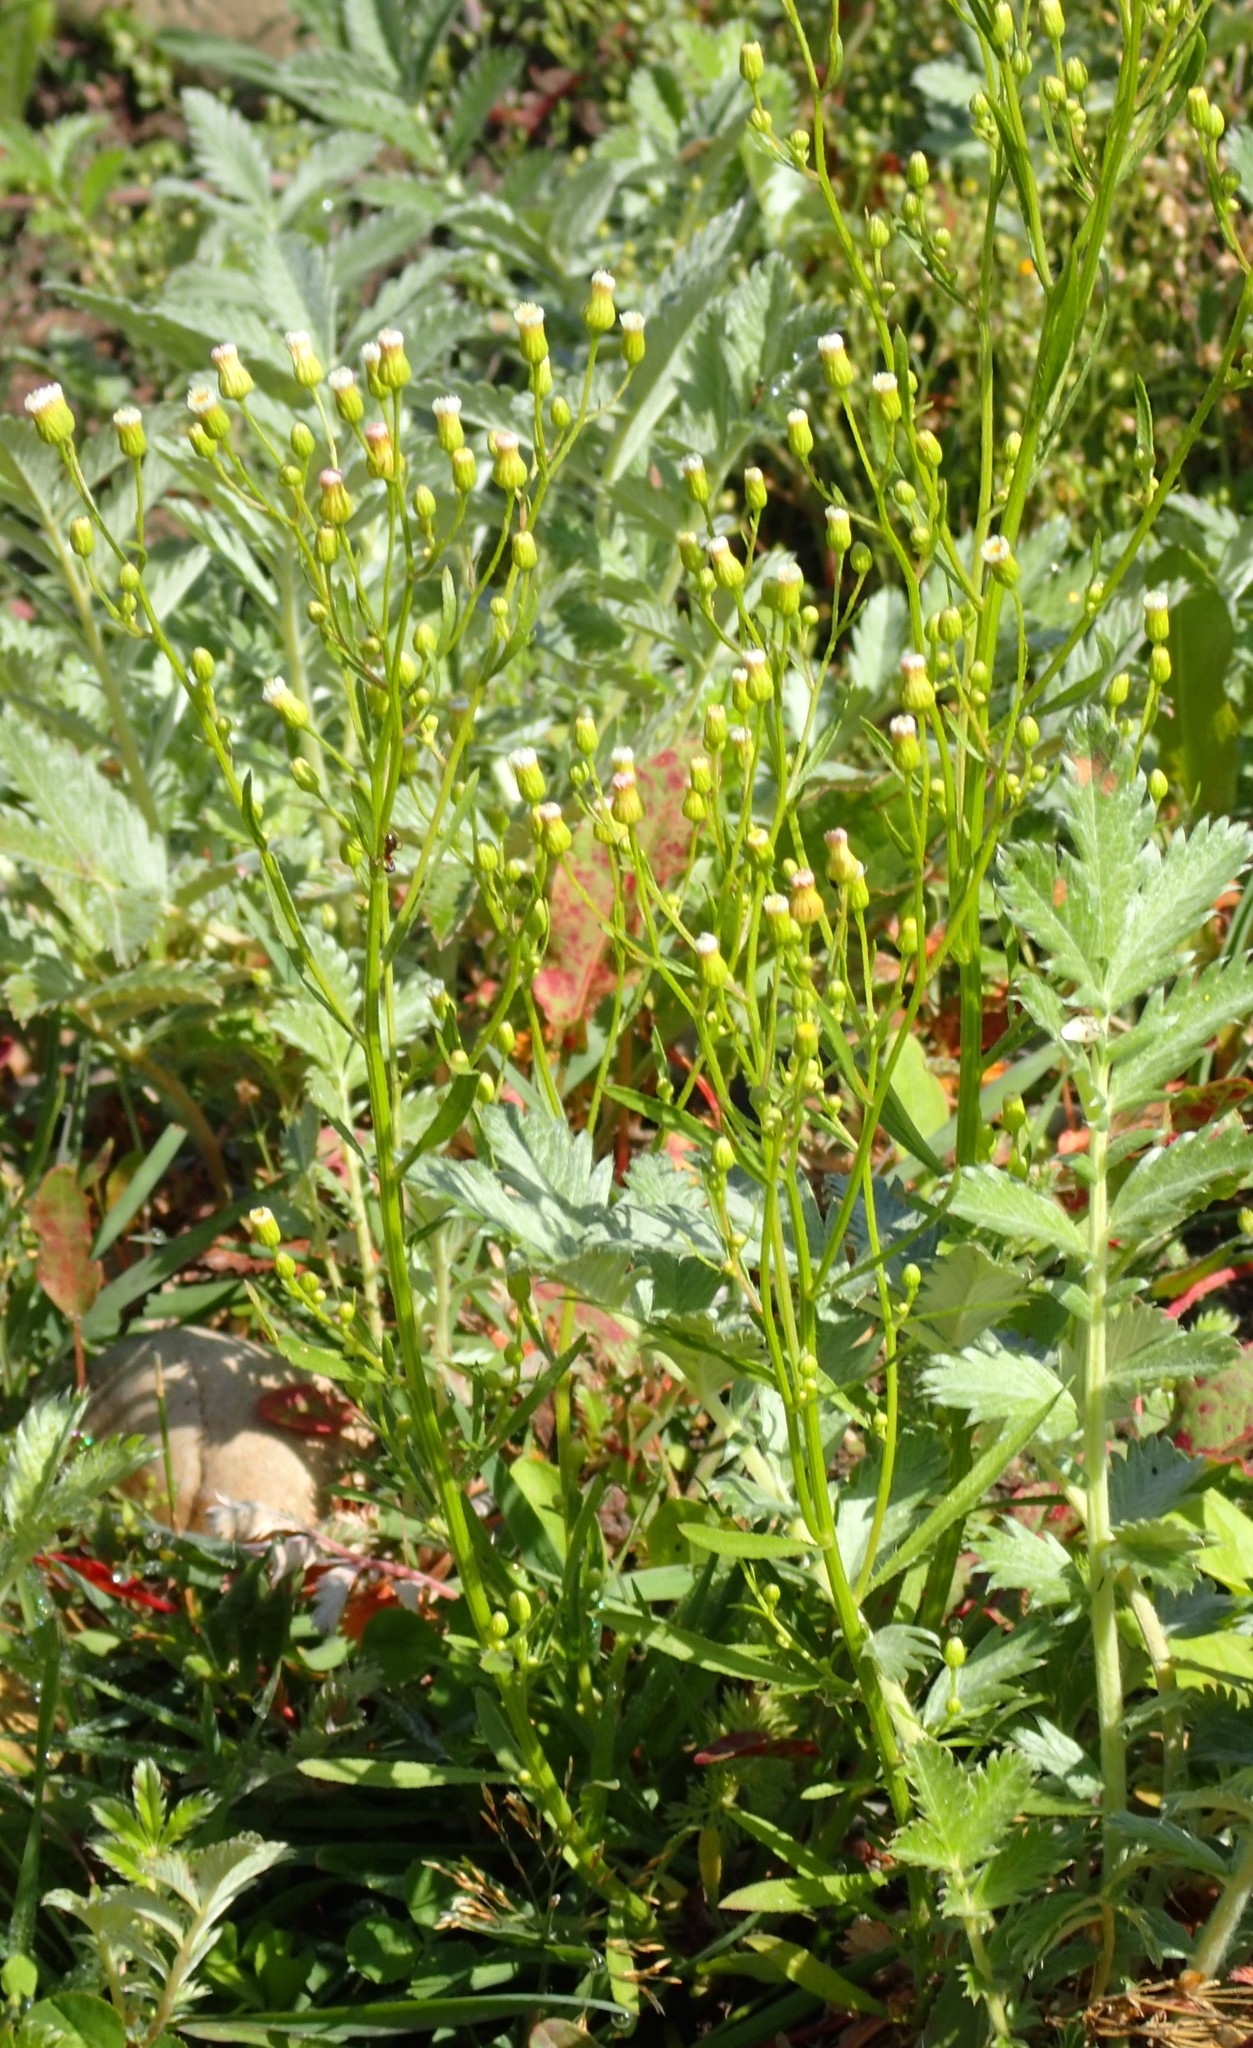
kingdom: Plantae
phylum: Tracheophyta
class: Magnoliopsida
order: Asterales
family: Asteraceae
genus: Erigeron
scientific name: Erigeron canadensis
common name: Canadian fleabane
